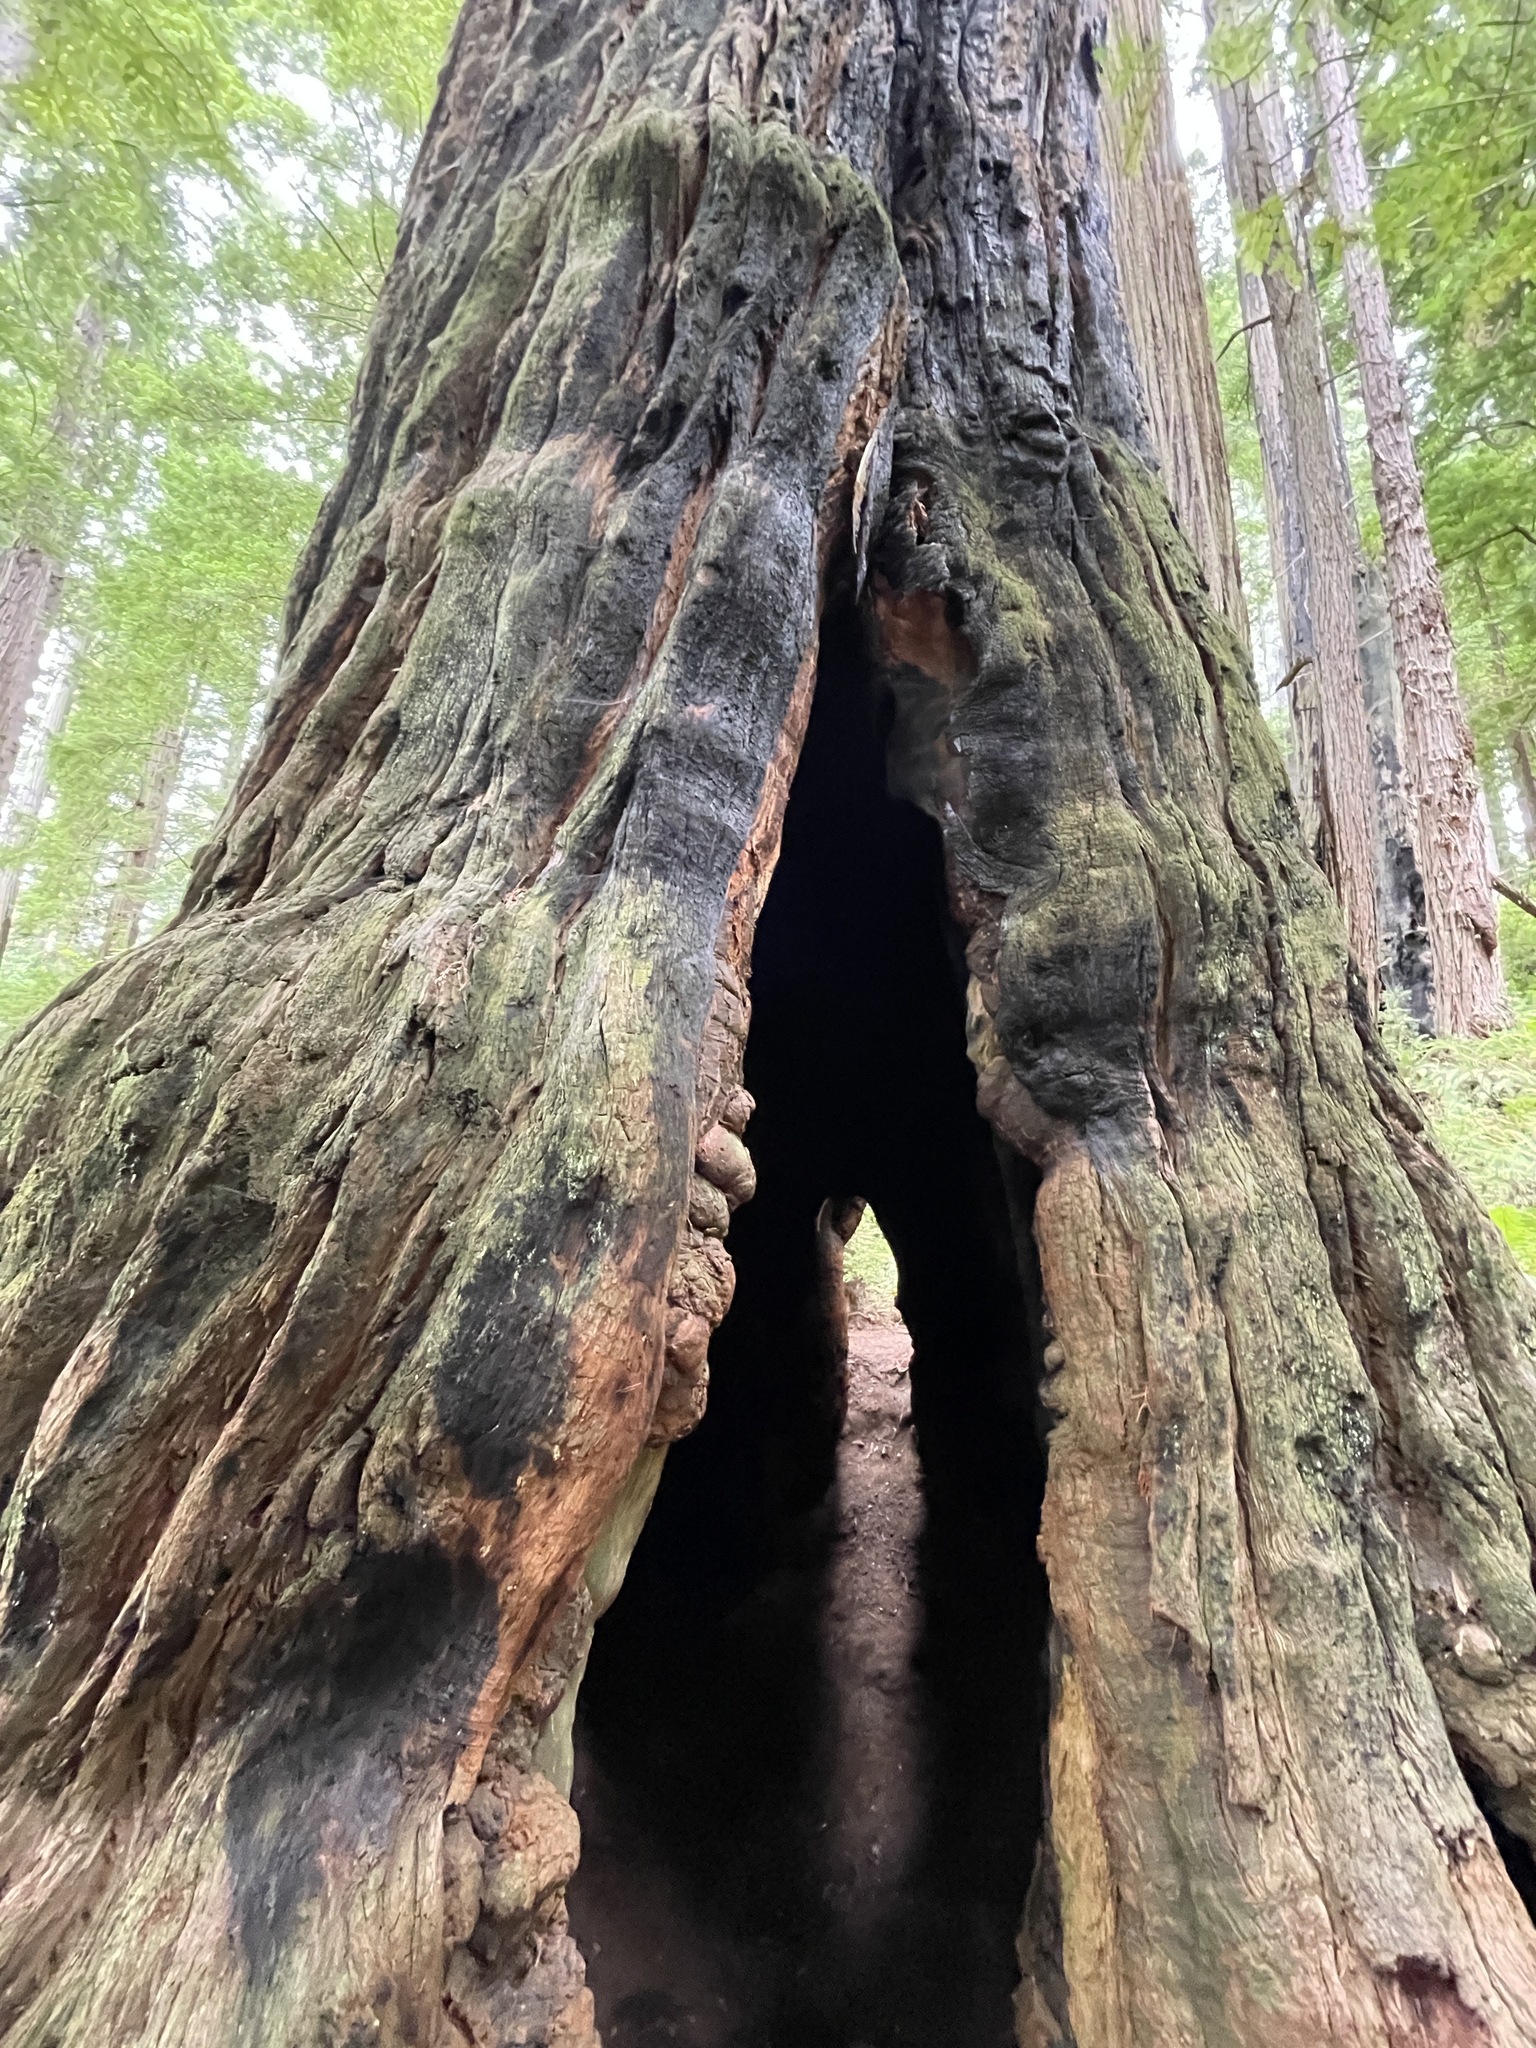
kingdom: Plantae
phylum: Tracheophyta
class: Pinopsida
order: Pinales
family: Cupressaceae
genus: Sequoia
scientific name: Sequoia sempervirens
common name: Coast redwood
